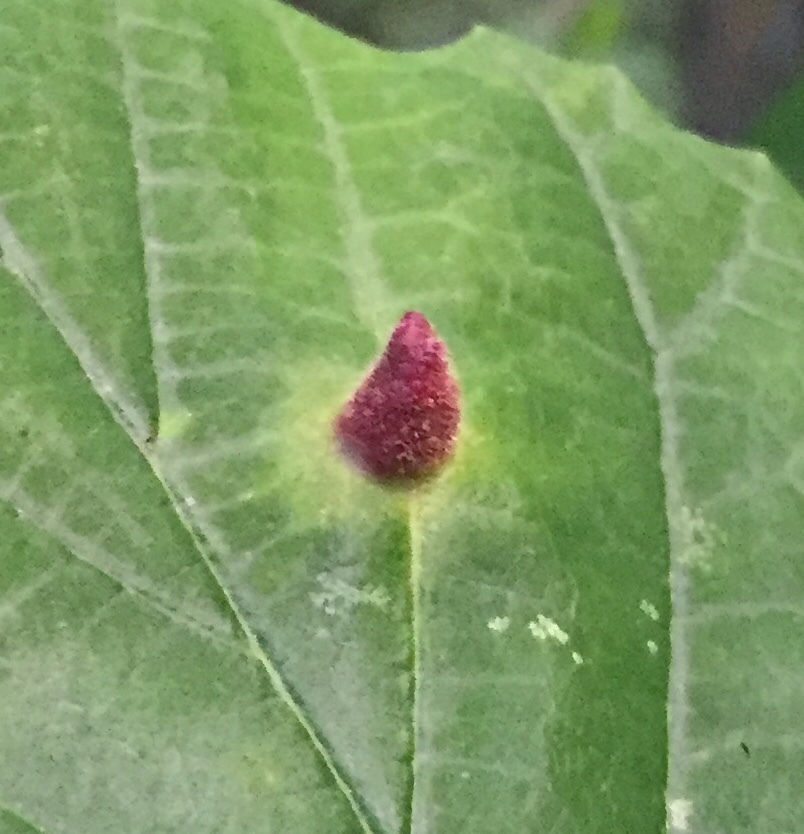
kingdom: Animalia
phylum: Arthropoda
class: Insecta
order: Hemiptera
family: Aphididae
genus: Hormaphis
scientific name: Hormaphis hamamelidis
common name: Witch-hazel cone gall aphid
